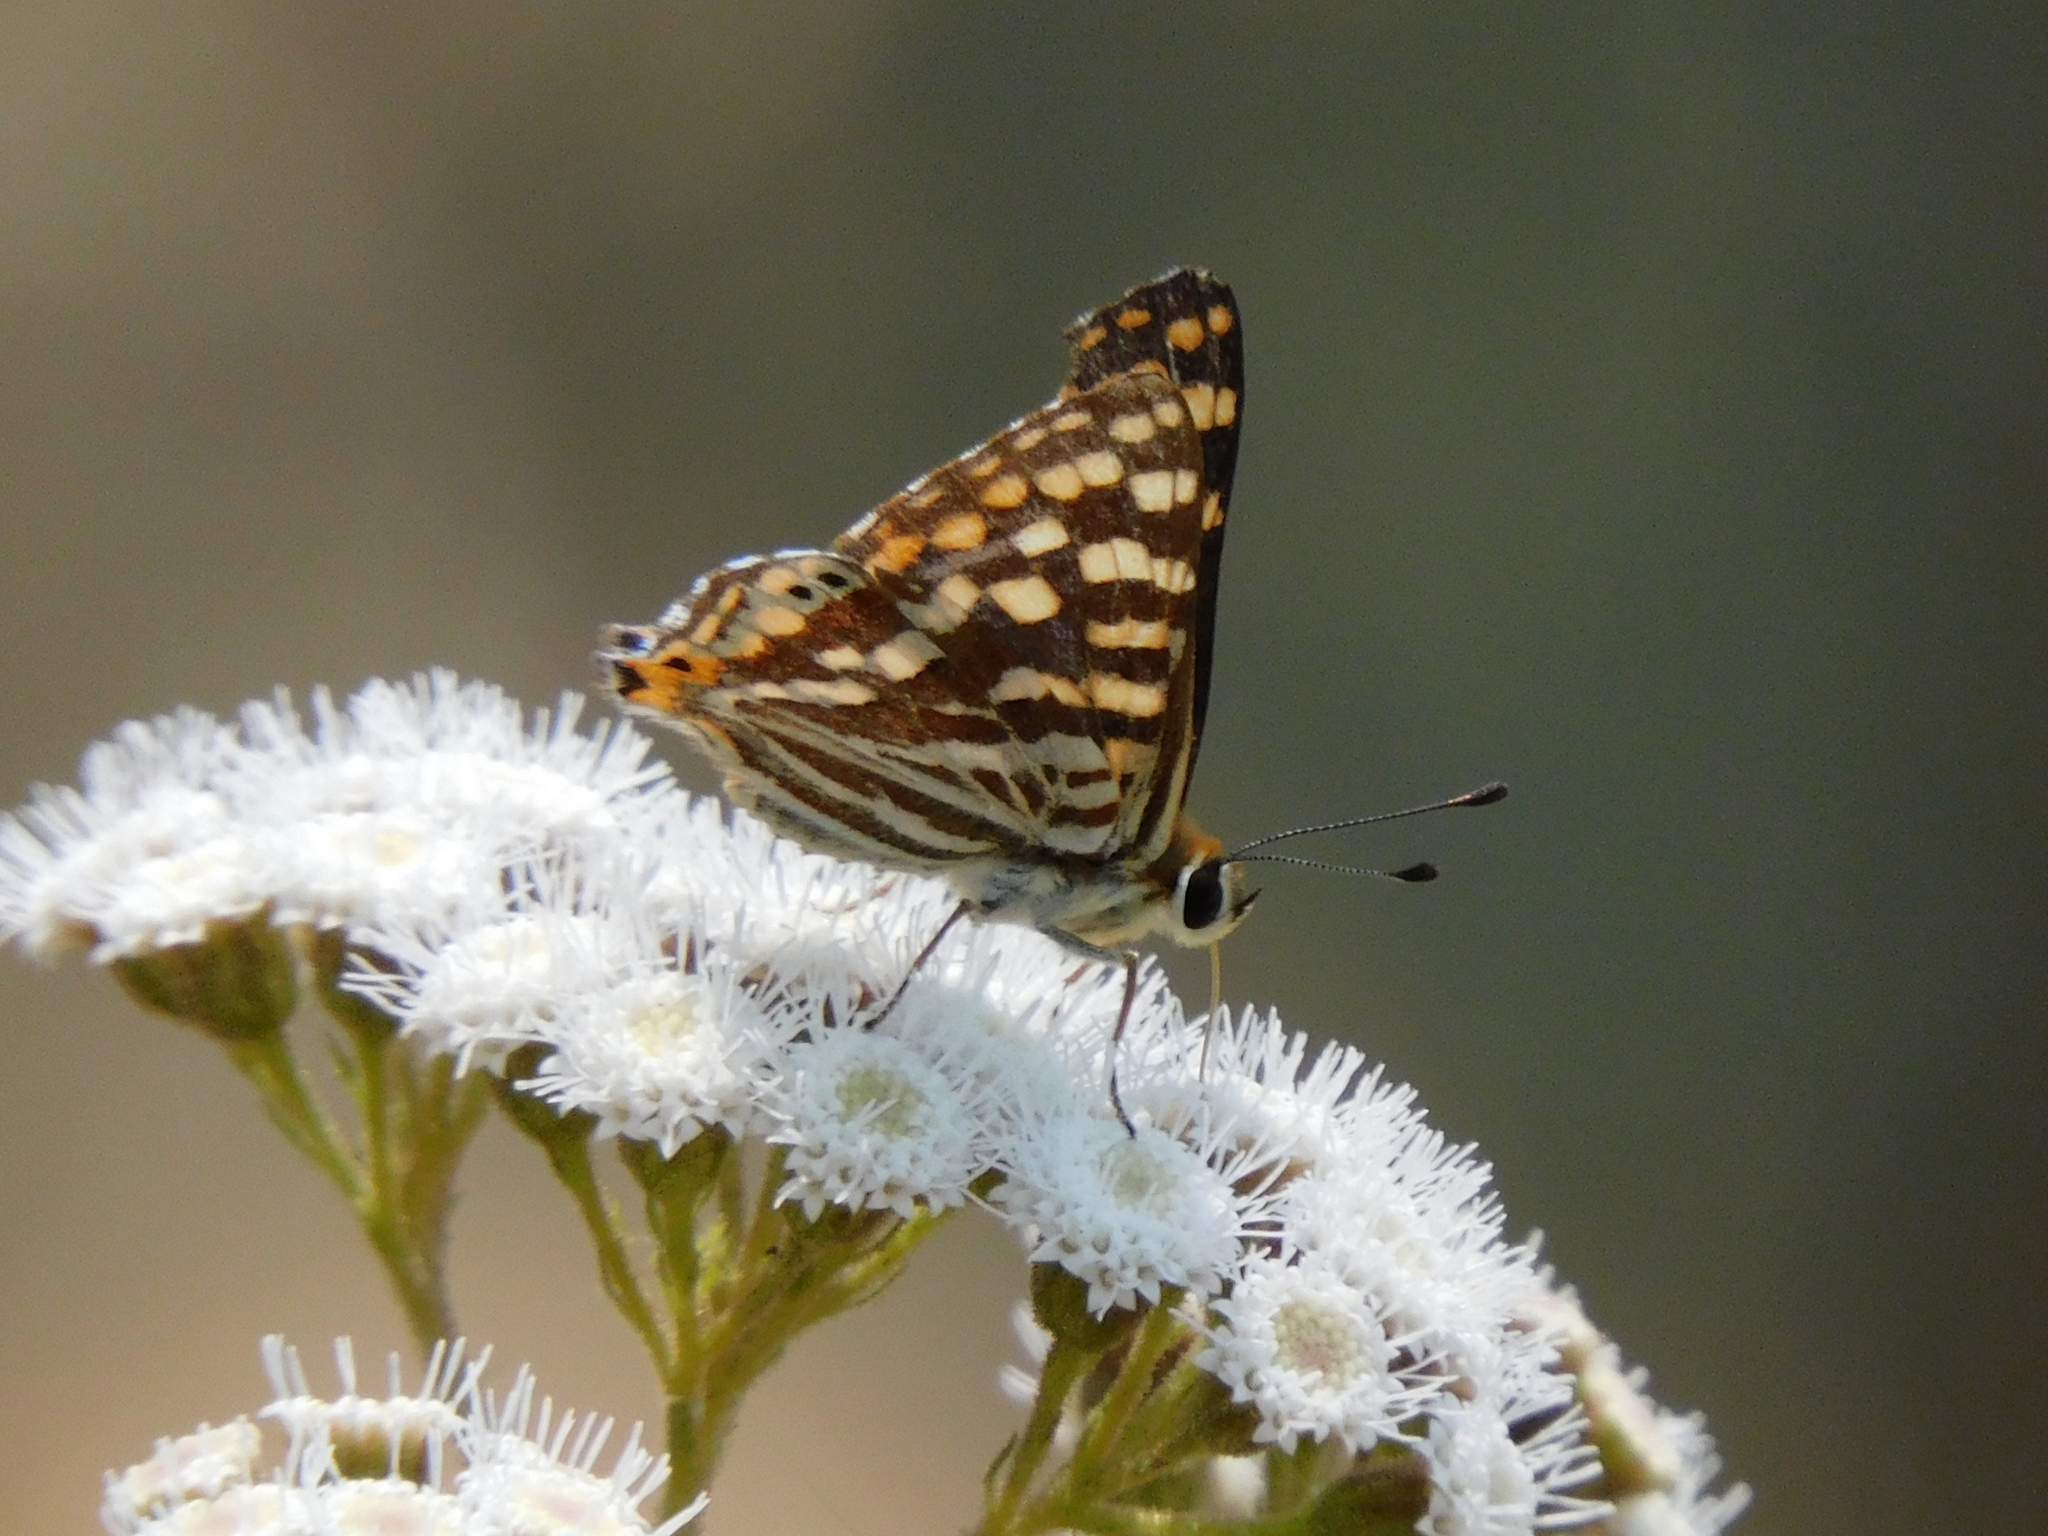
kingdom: Animalia
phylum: Arthropoda
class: Insecta
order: Lepidoptera
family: Lycaenidae
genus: Dodona
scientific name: Dodona durga
